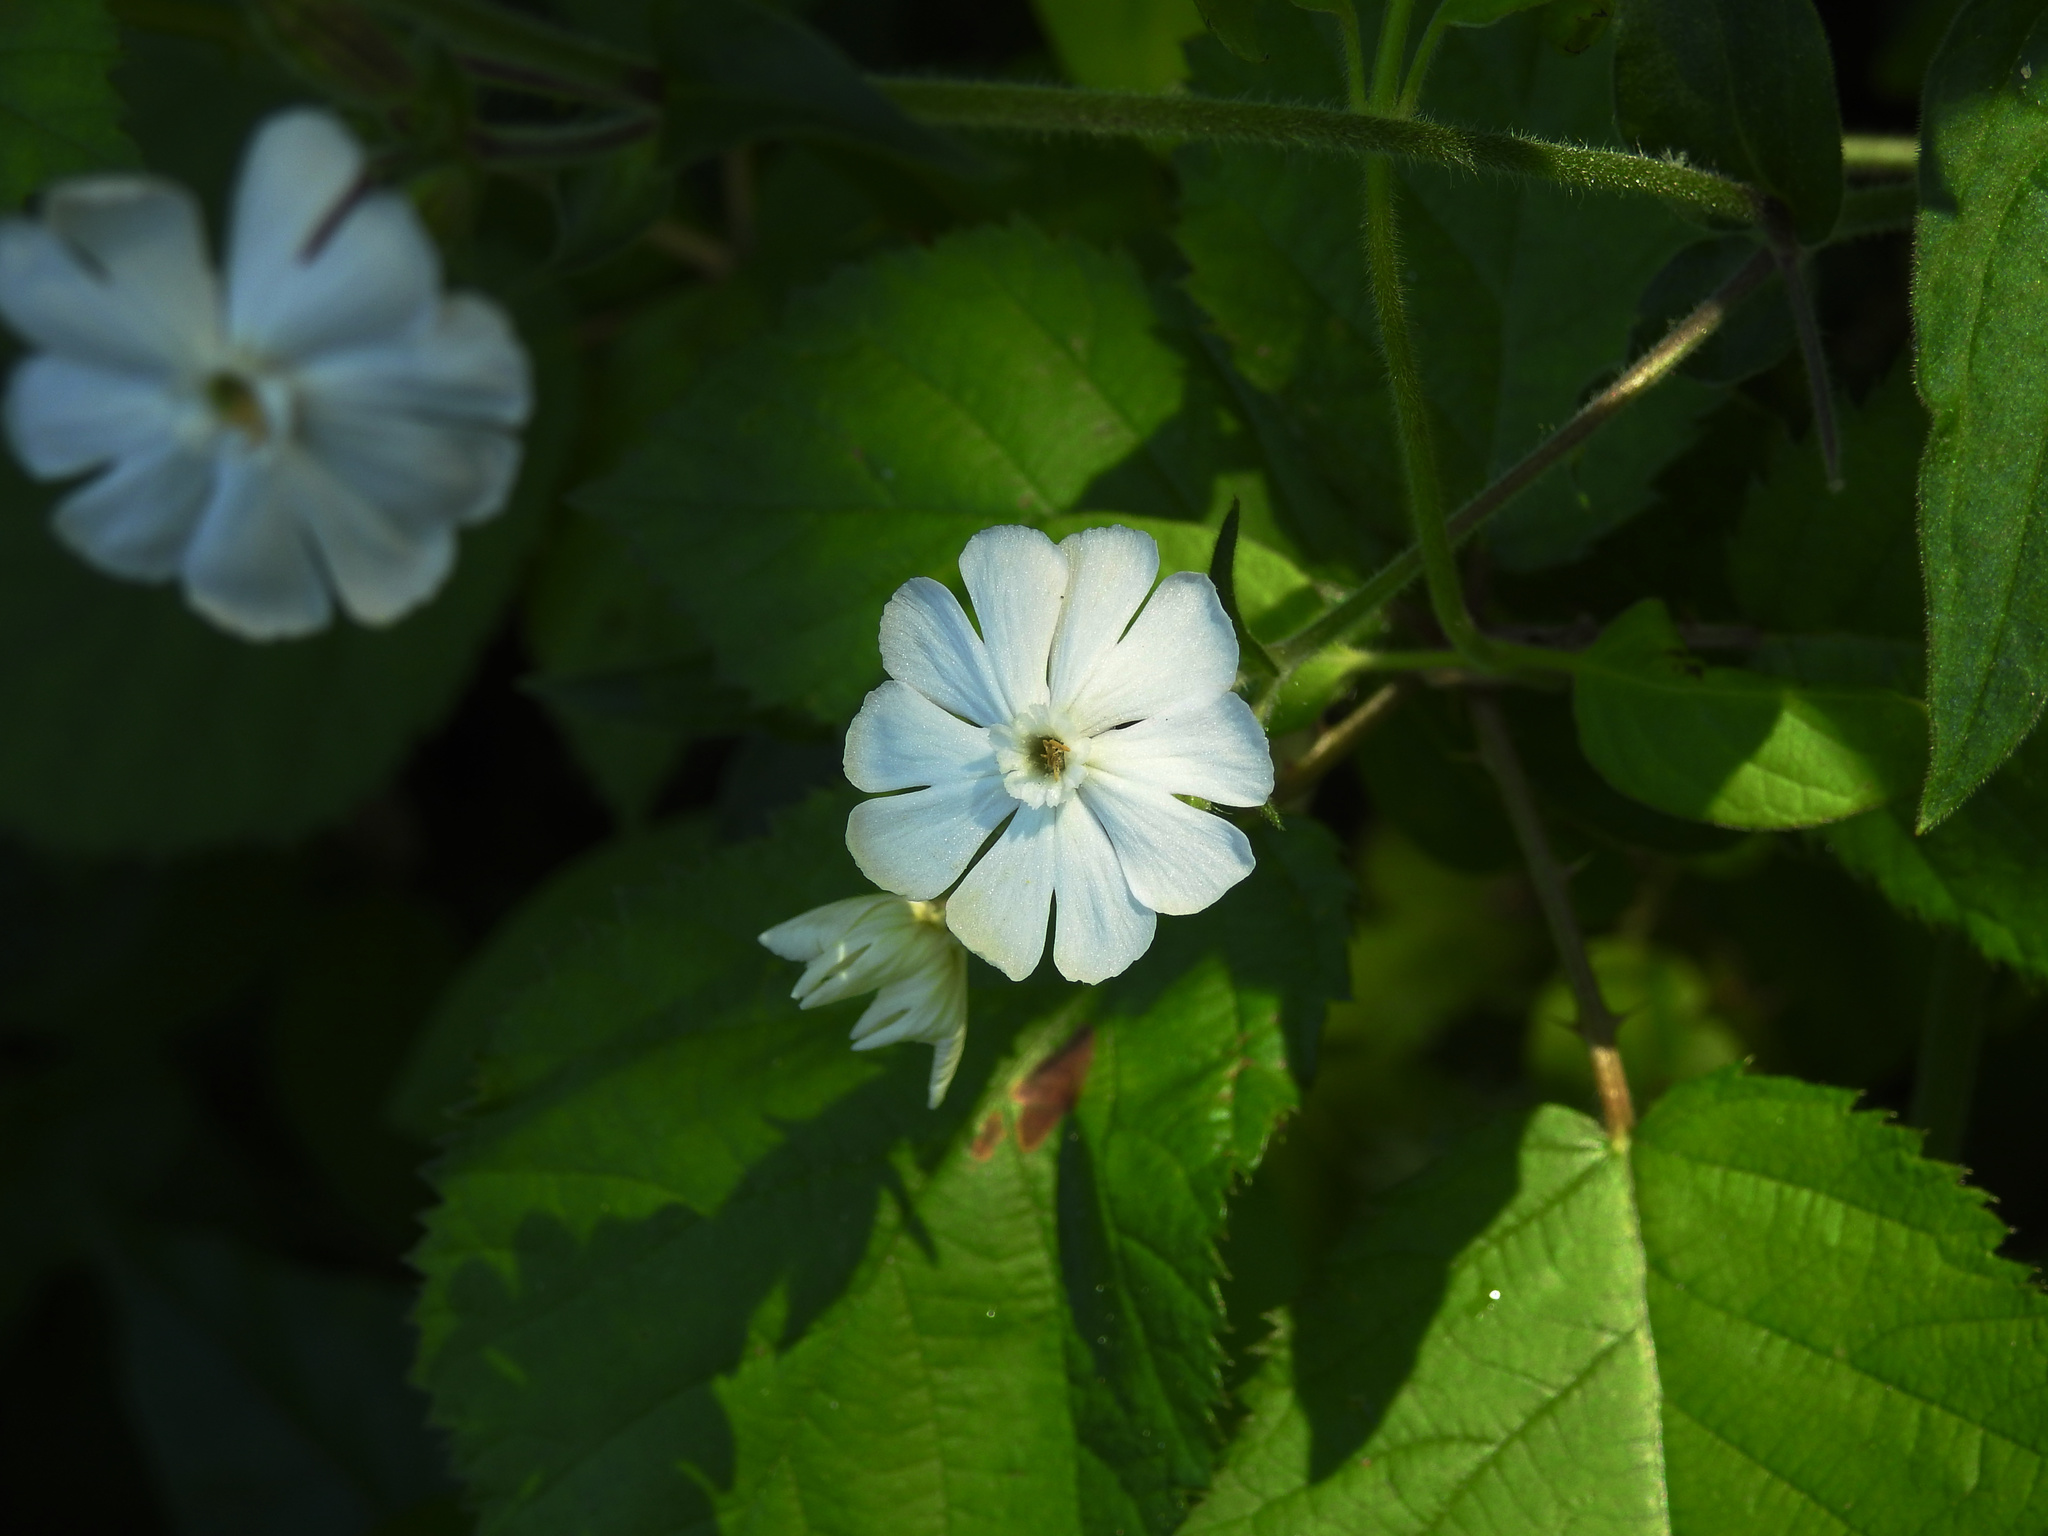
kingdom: Plantae
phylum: Tracheophyta
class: Magnoliopsida
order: Caryophyllales
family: Caryophyllaceae
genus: Silene
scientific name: Silene latifolia
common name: White campion
